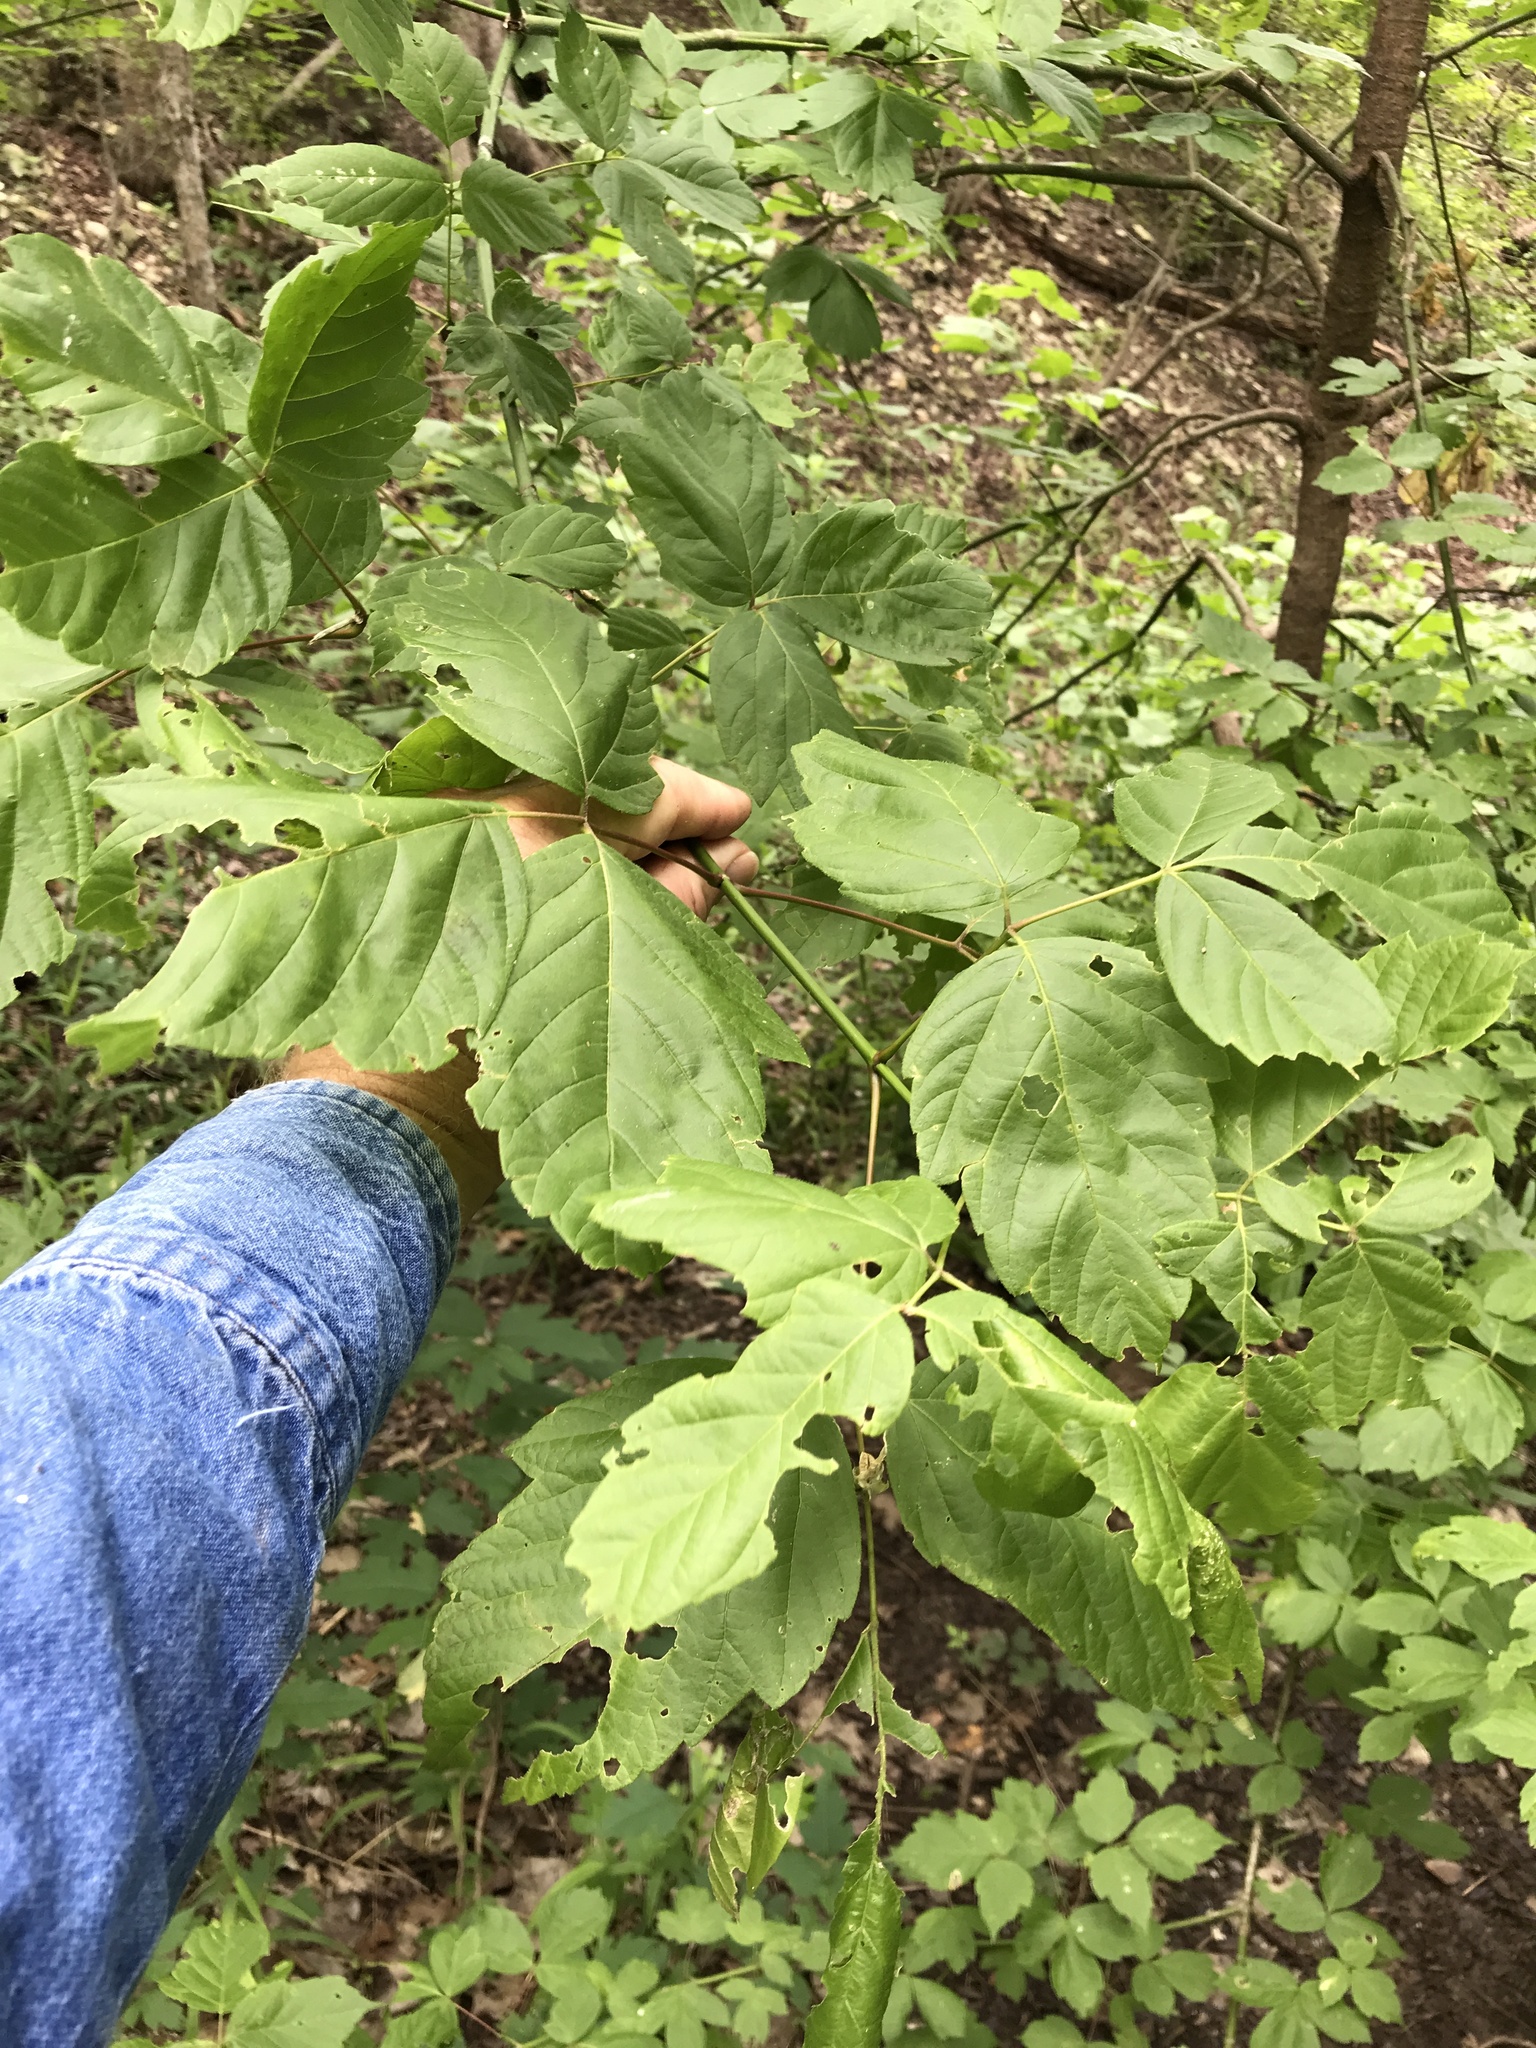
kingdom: Plantae
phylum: Tracheophyta
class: Magnoliopsida
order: Sapindales
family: Sapindaceae
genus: Acer
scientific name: Acer negundo
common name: Ashleaf maple
